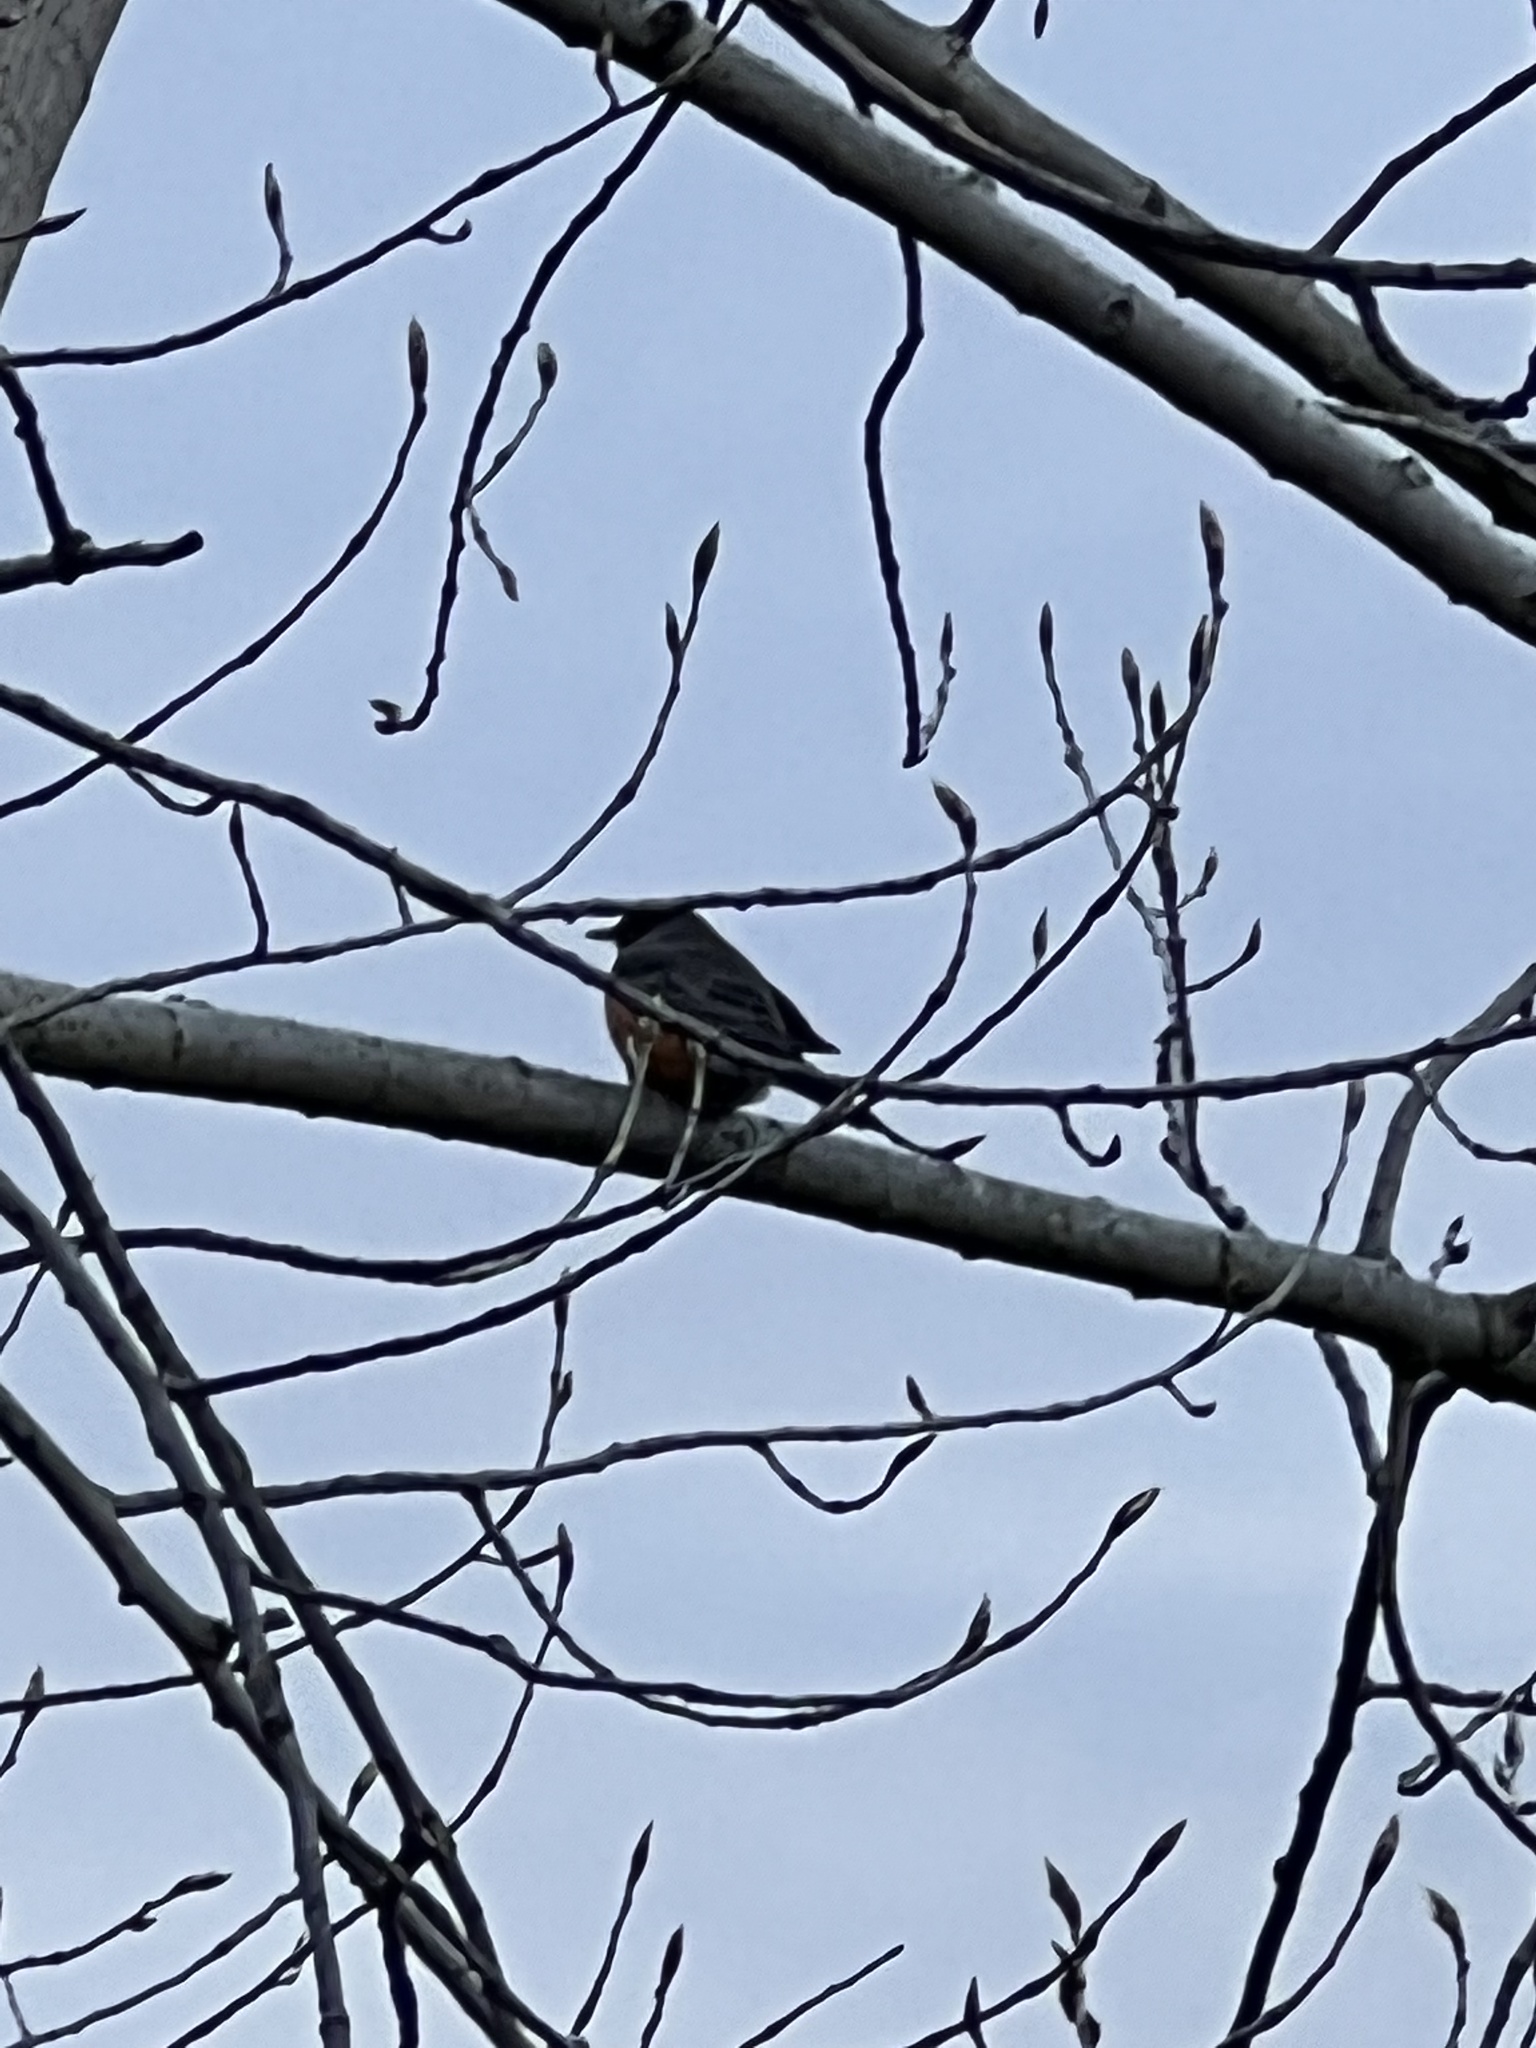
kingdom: Animalia
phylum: Chordata
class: Aves
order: Passeriformes
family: Turdidae
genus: Turdus
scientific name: Turdus migratorius
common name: American robin
